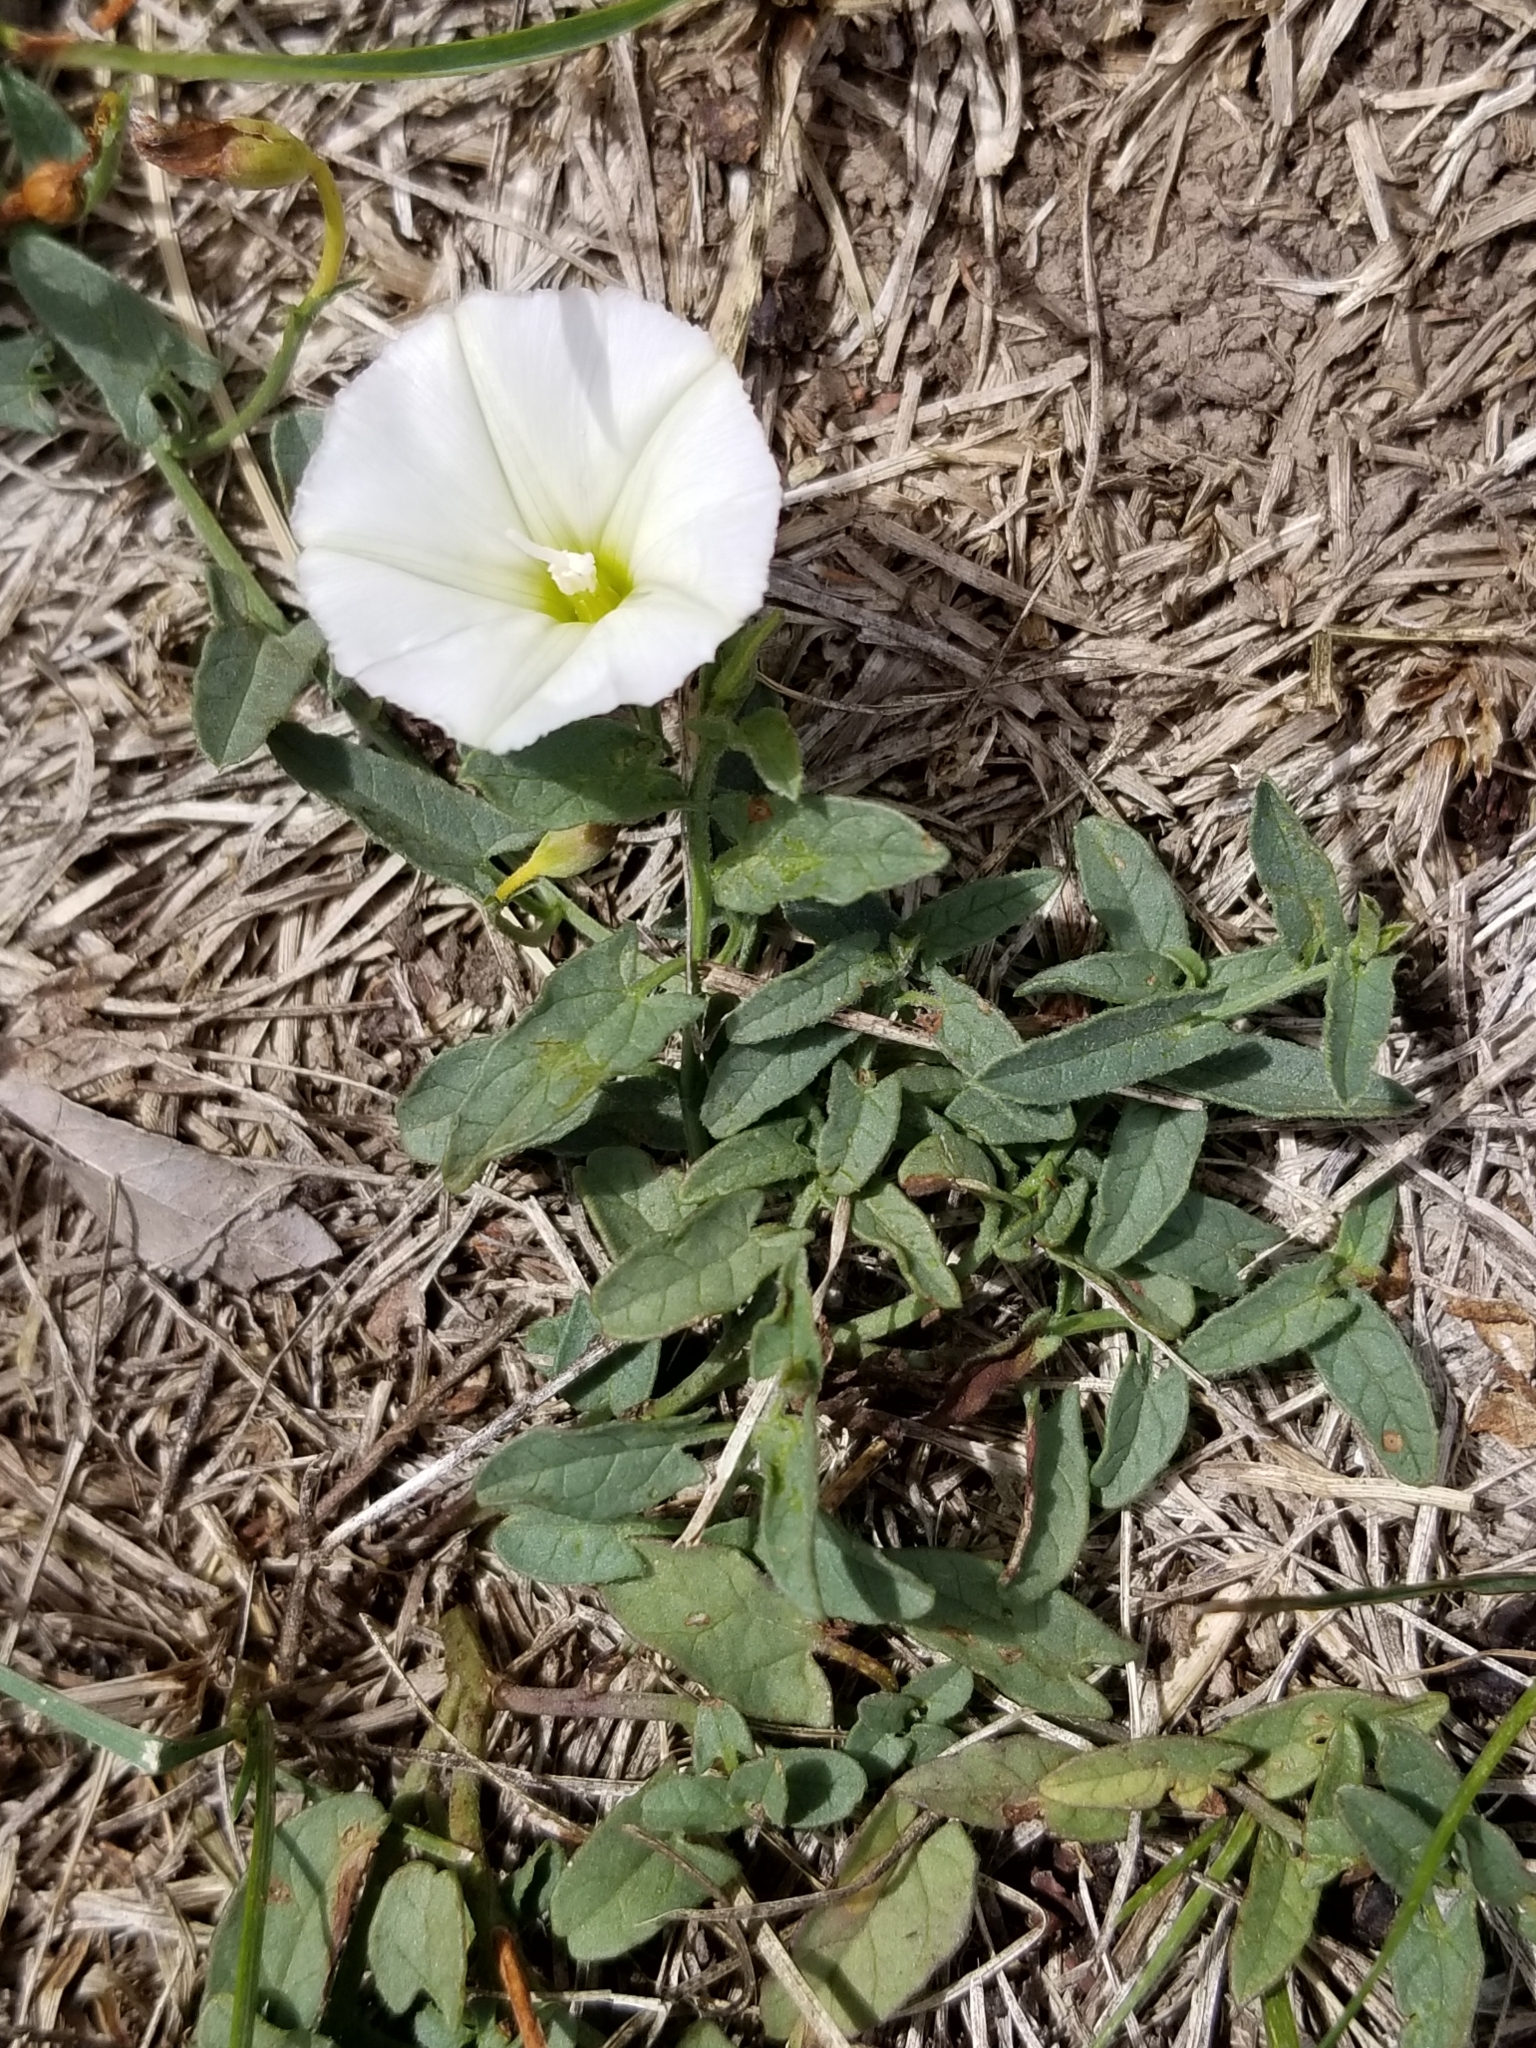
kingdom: Plantae
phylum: Tracheophyta
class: Magnoliopsida
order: Solanales
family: Convolvulaceae
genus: Convolvulus
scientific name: Convolvulus arvensis
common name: Field bindweed
